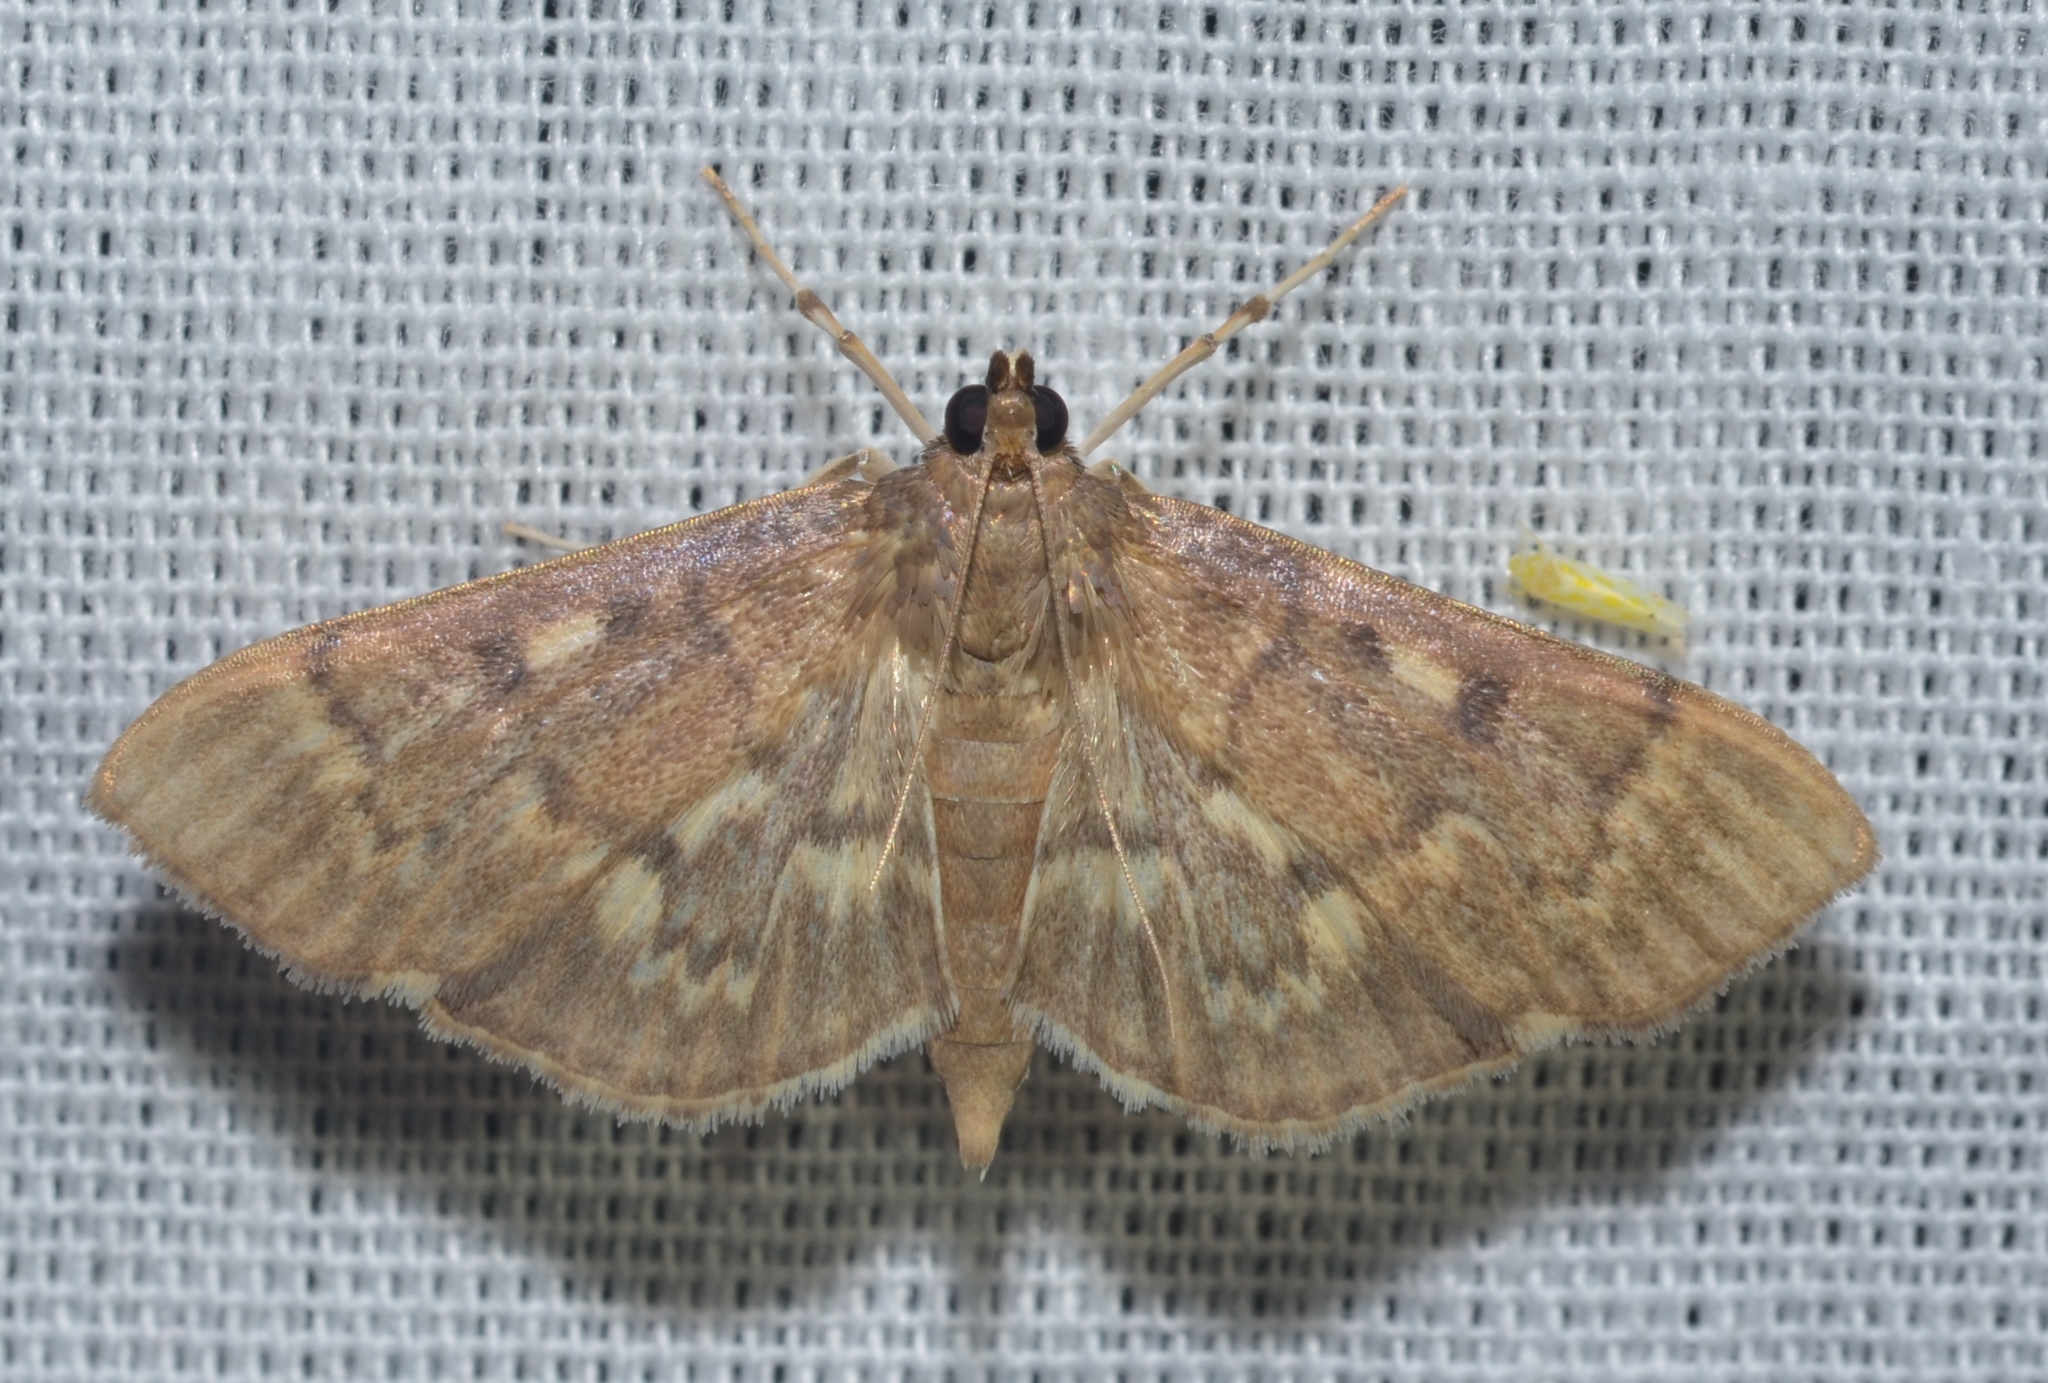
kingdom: Animalia
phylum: Arthropoda
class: Insecta
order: Lepidoptera
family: Crambidae
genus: Herpetogramma
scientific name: Herpetogramma aeglealis
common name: Serpentine webworm moth
